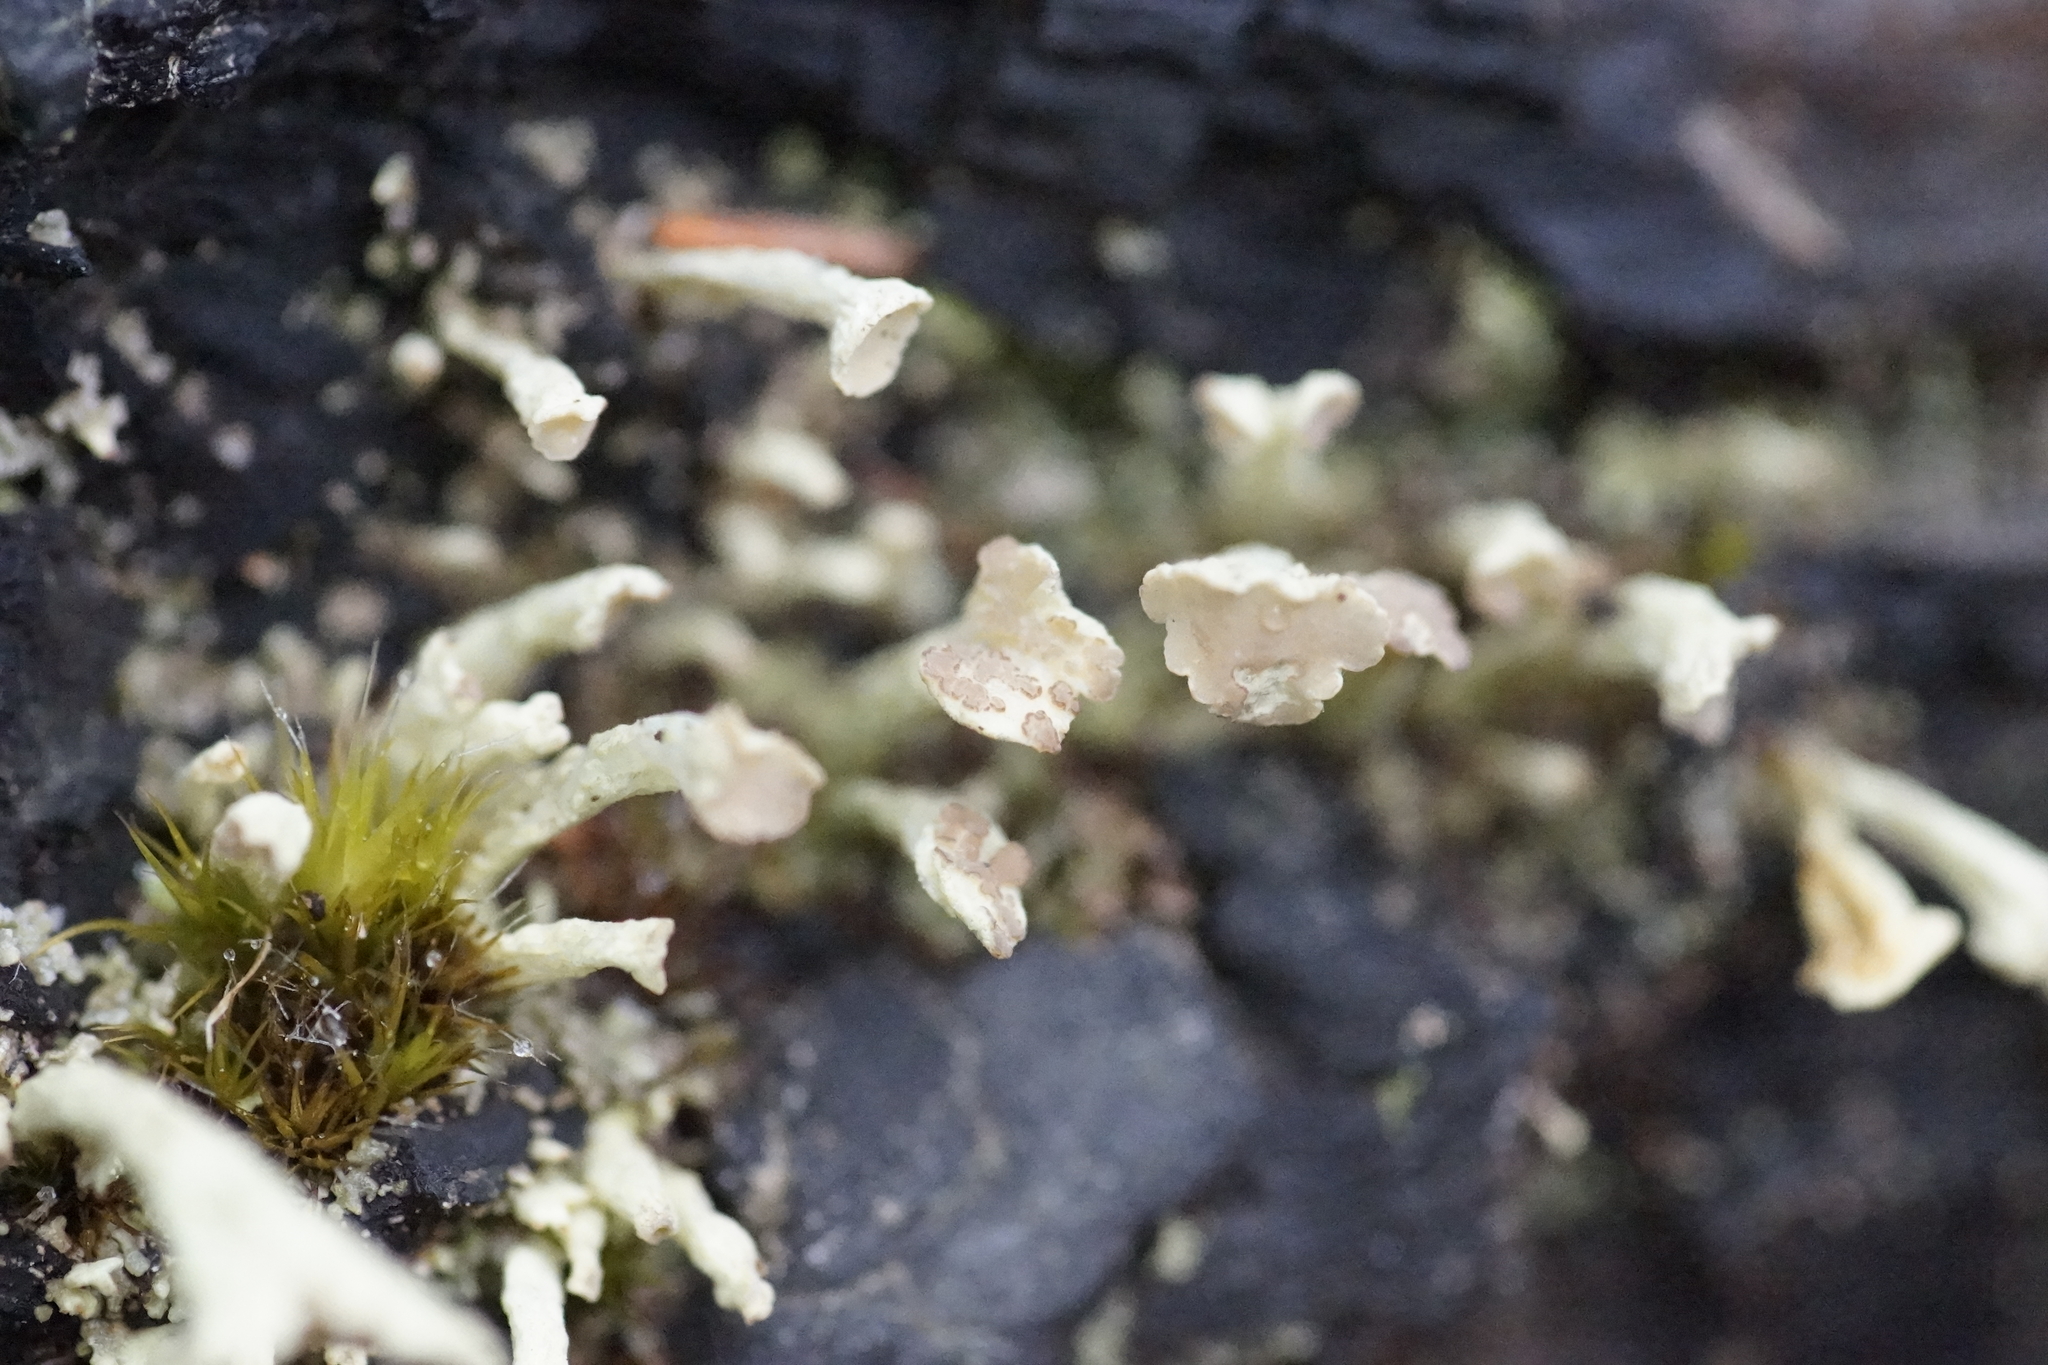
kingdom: Fungi
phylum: Ascomycota
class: Lecanoromycetes
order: Lecanorales
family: Cladoniaceae
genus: Thysanothecium
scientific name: Thysanothecium scutellatum
